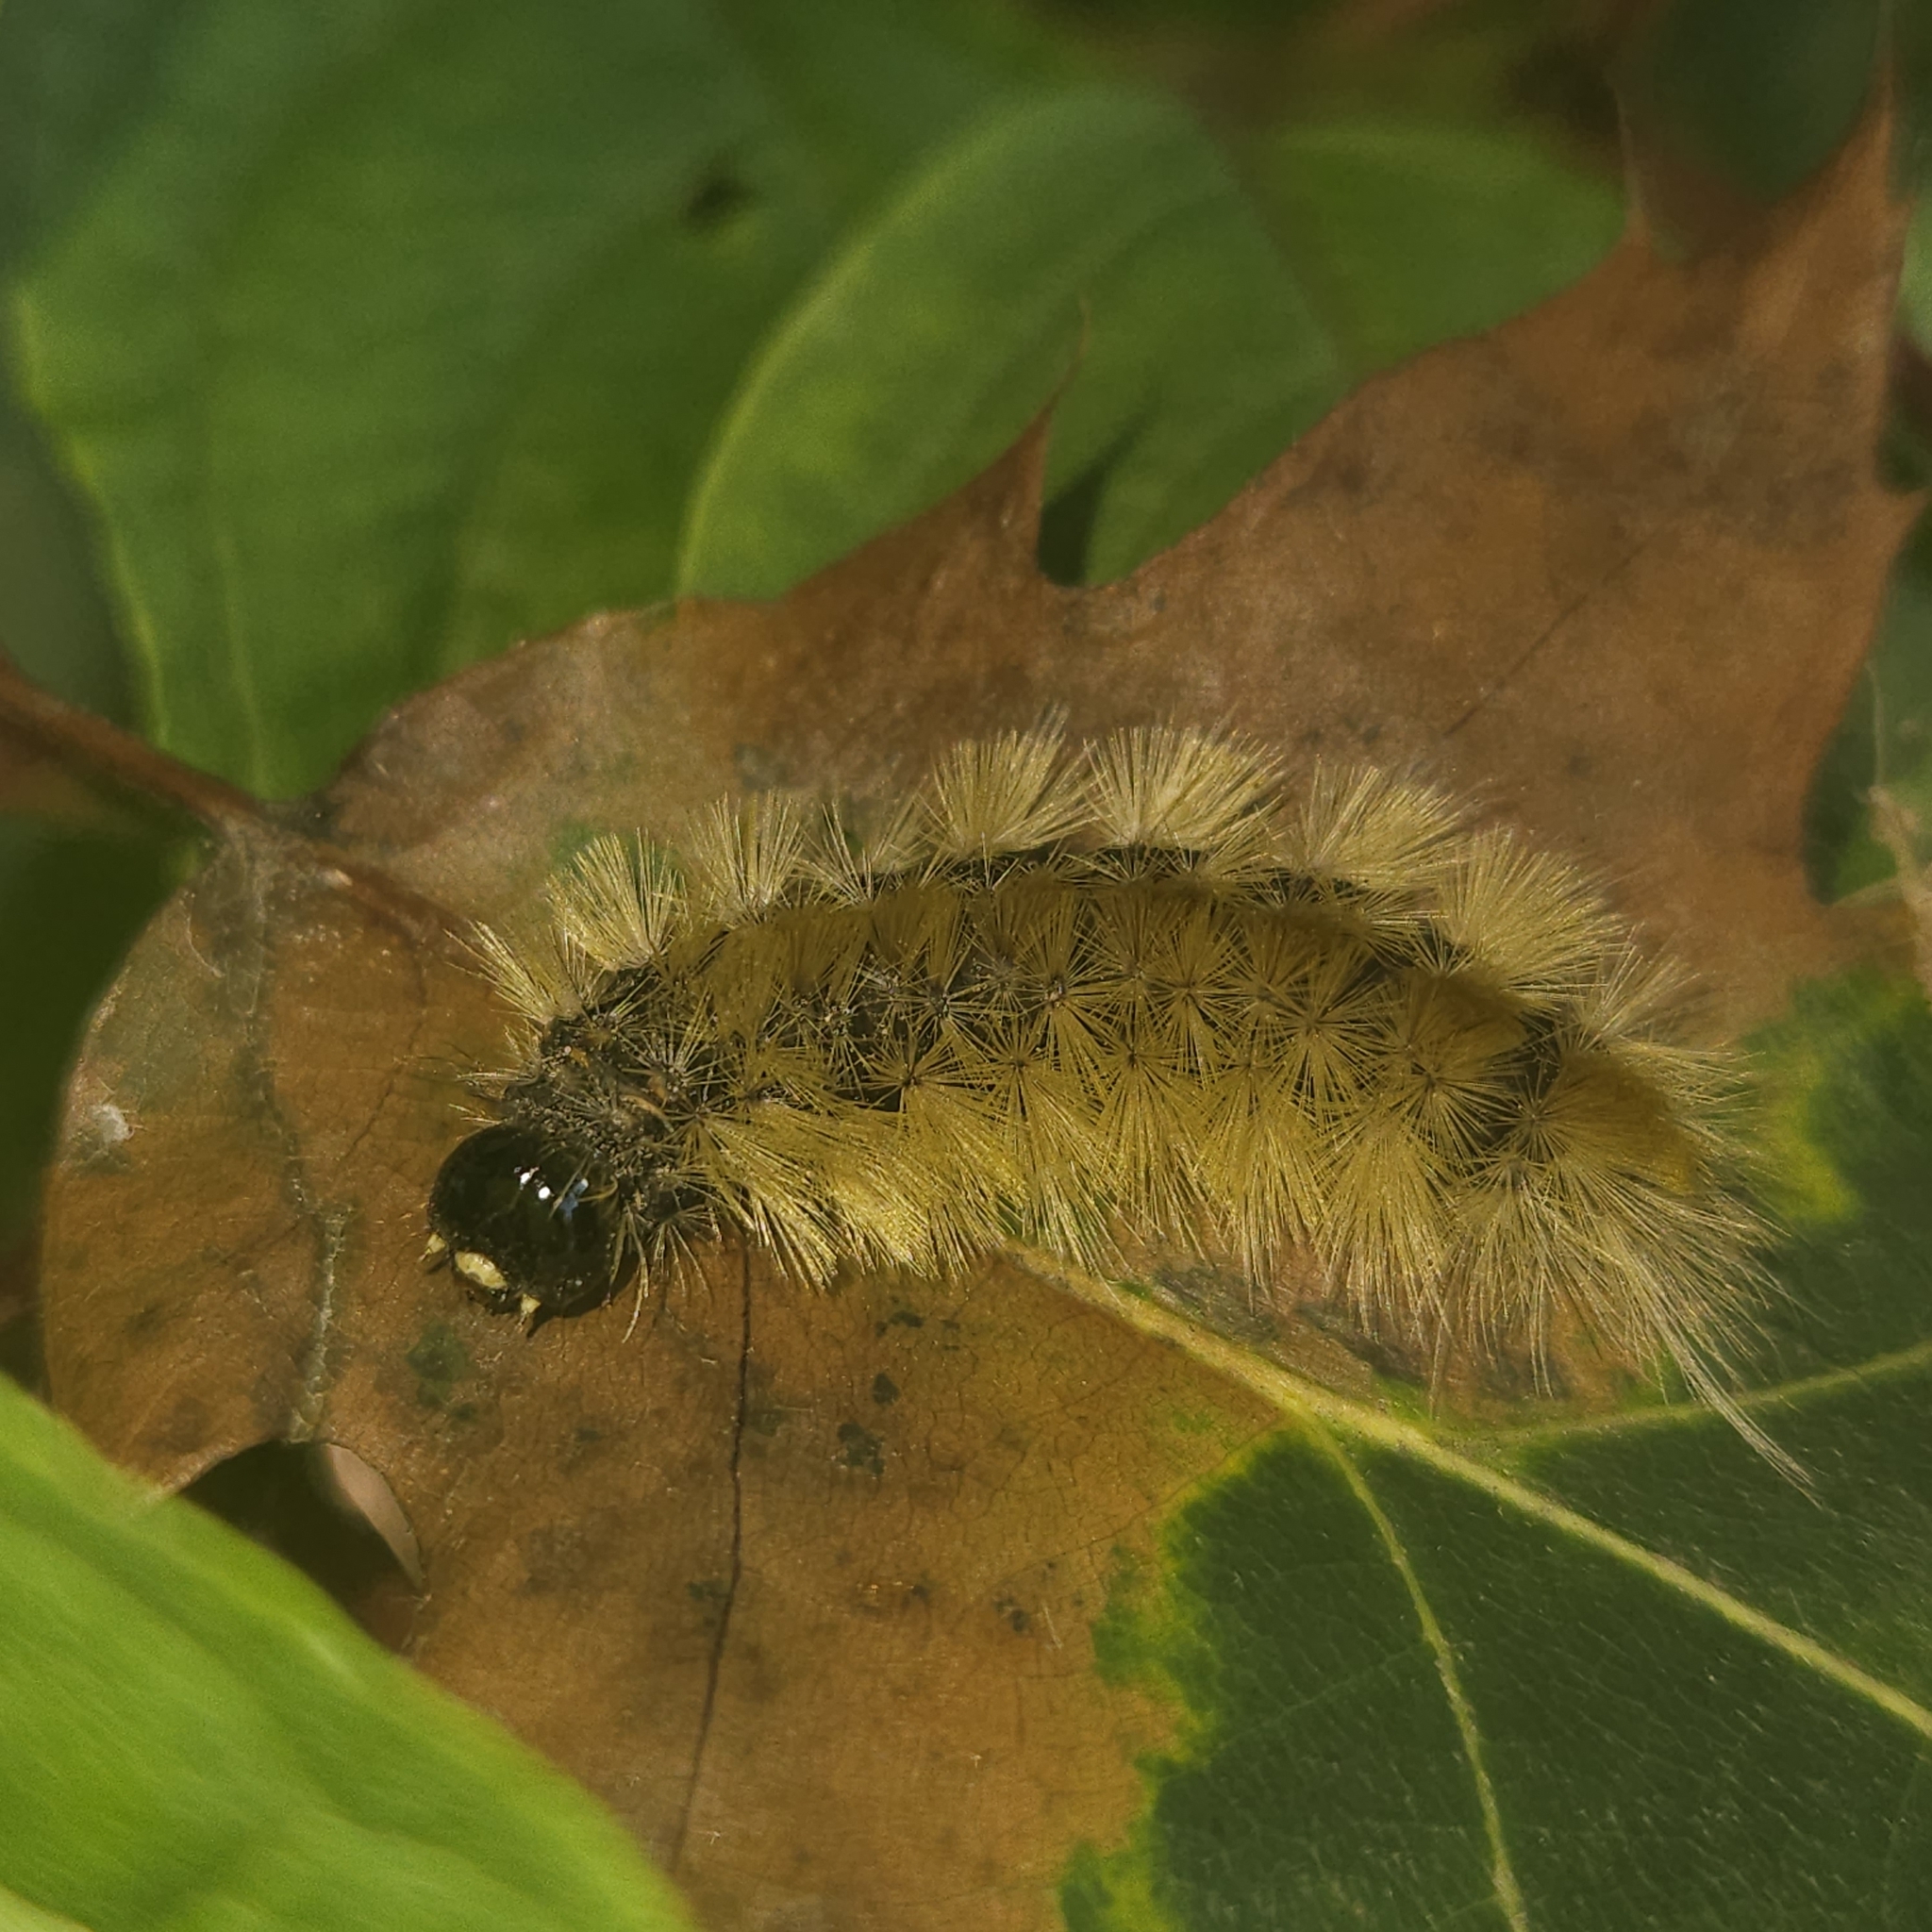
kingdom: Animalia
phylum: Arthropoda
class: Insecta
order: Lepidoptera
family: Erebidae
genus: Halysidota
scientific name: Halysidota tessellaris
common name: Banded tussock moth
